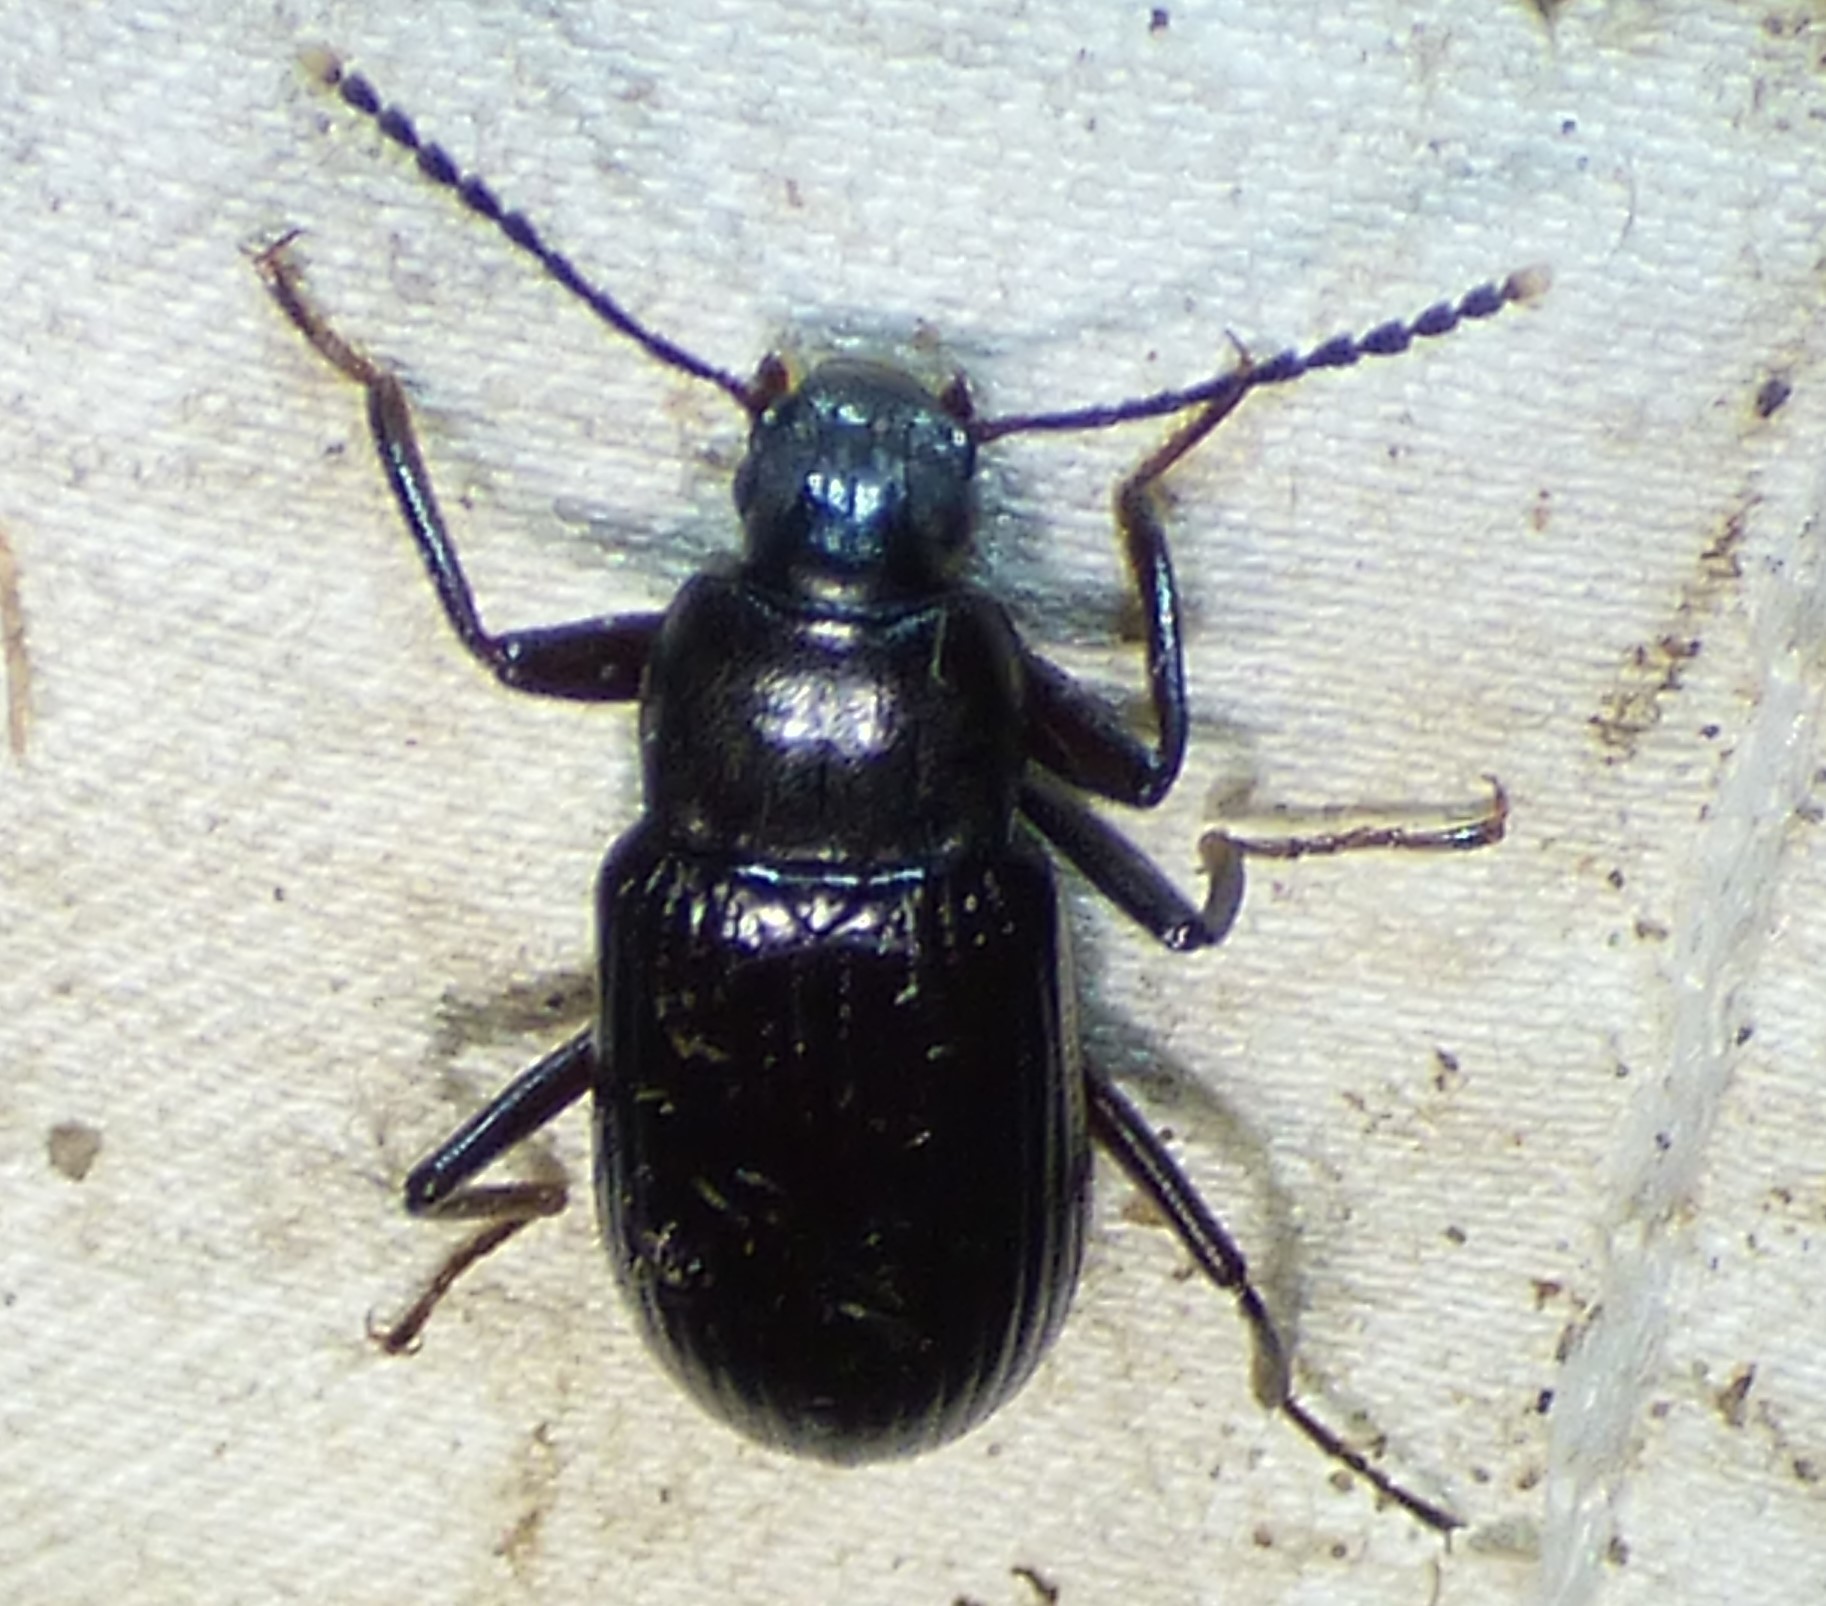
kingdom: Animalia
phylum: Arthropoda
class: Insecta
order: Coleoptera
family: Tenebrionidae
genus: Strongylium
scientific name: Strongylium terminatum
